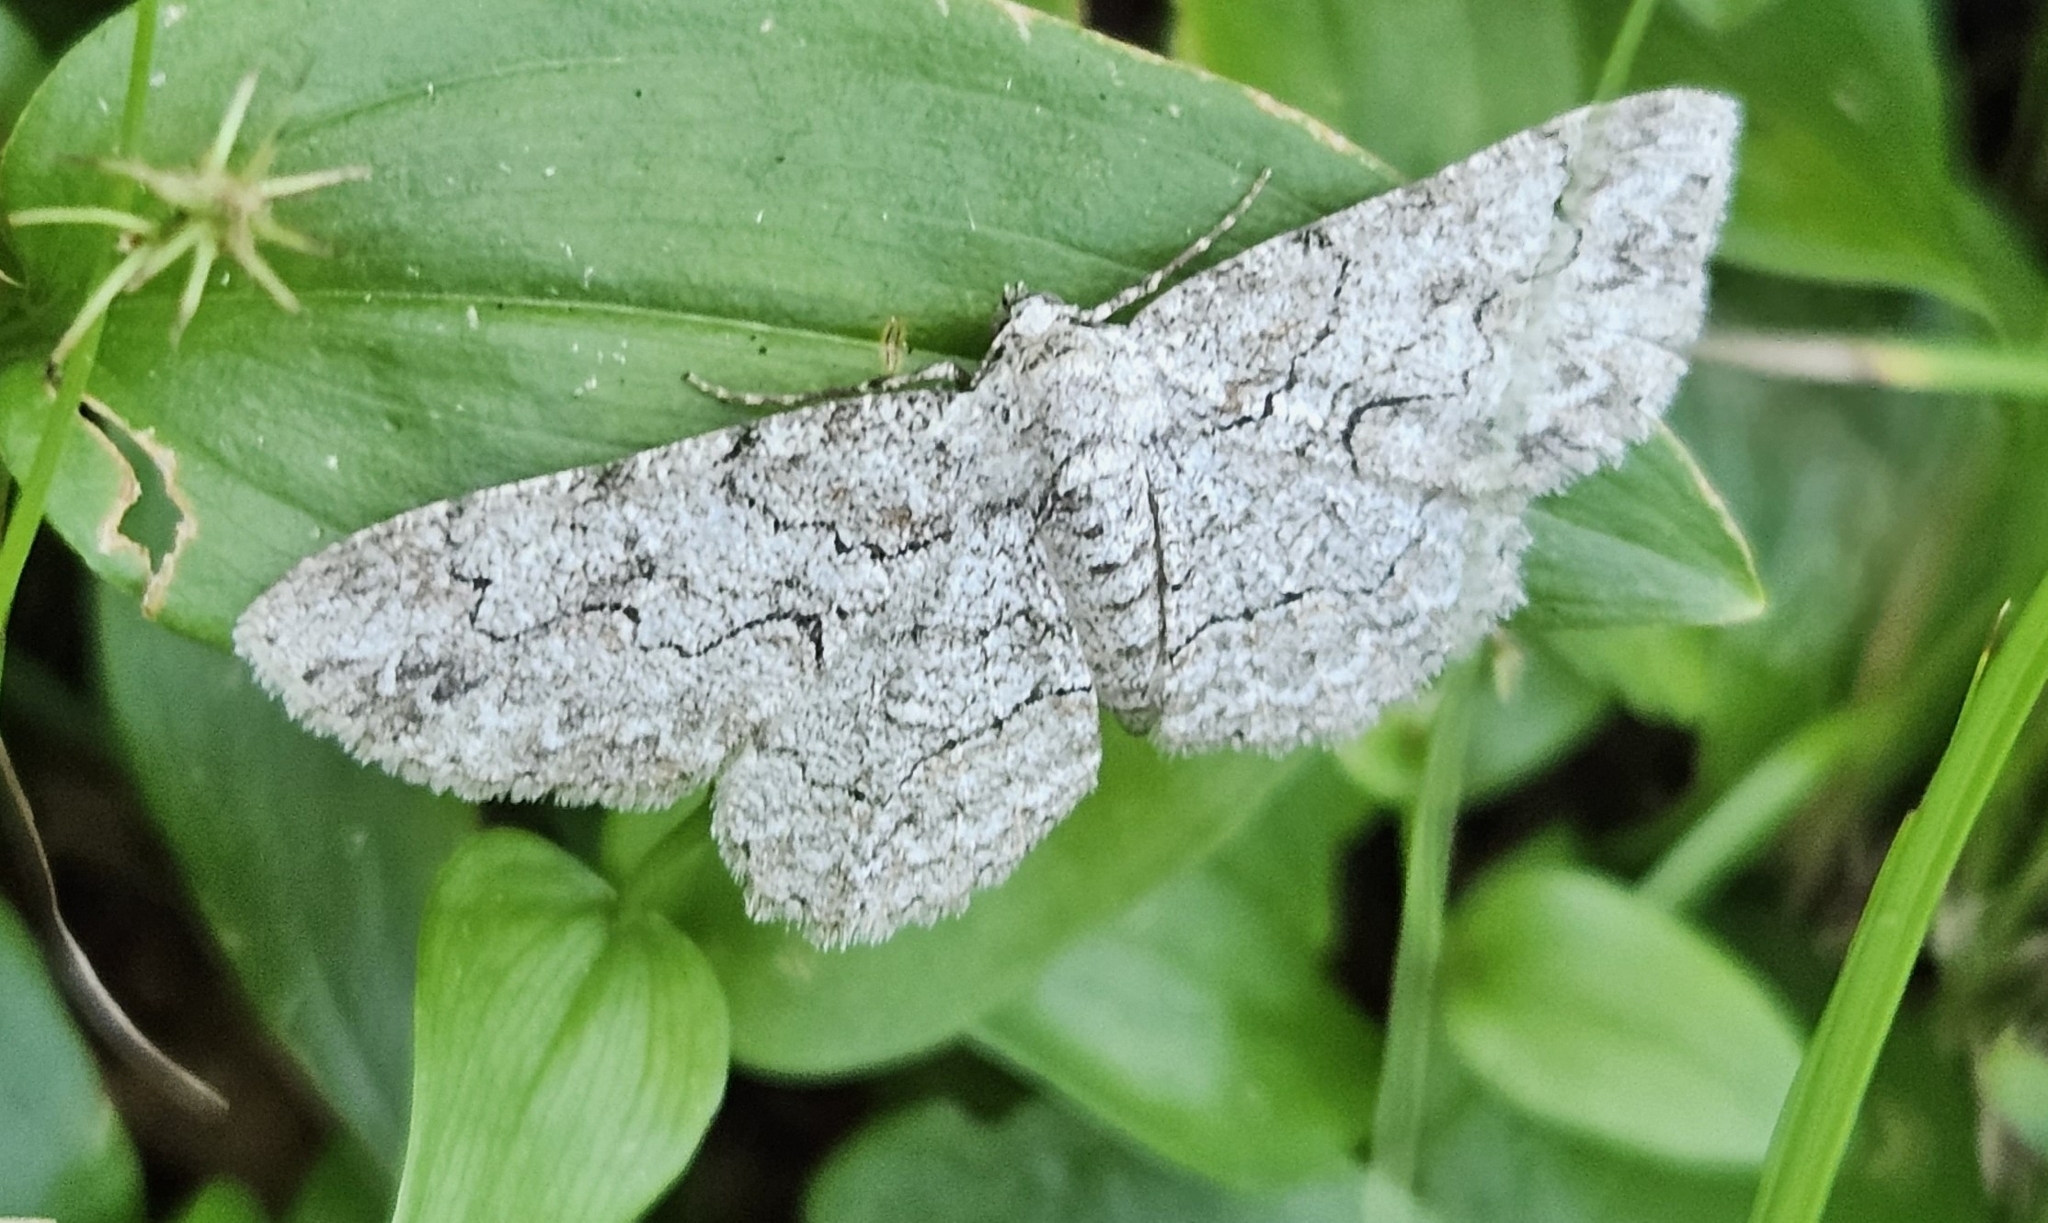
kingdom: Animalia
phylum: Arthropoda
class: Insecta
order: Lepidoptera
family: Geometridae
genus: Iridopsis
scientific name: Iridopsis defectaria
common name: Brown-shaded gray
